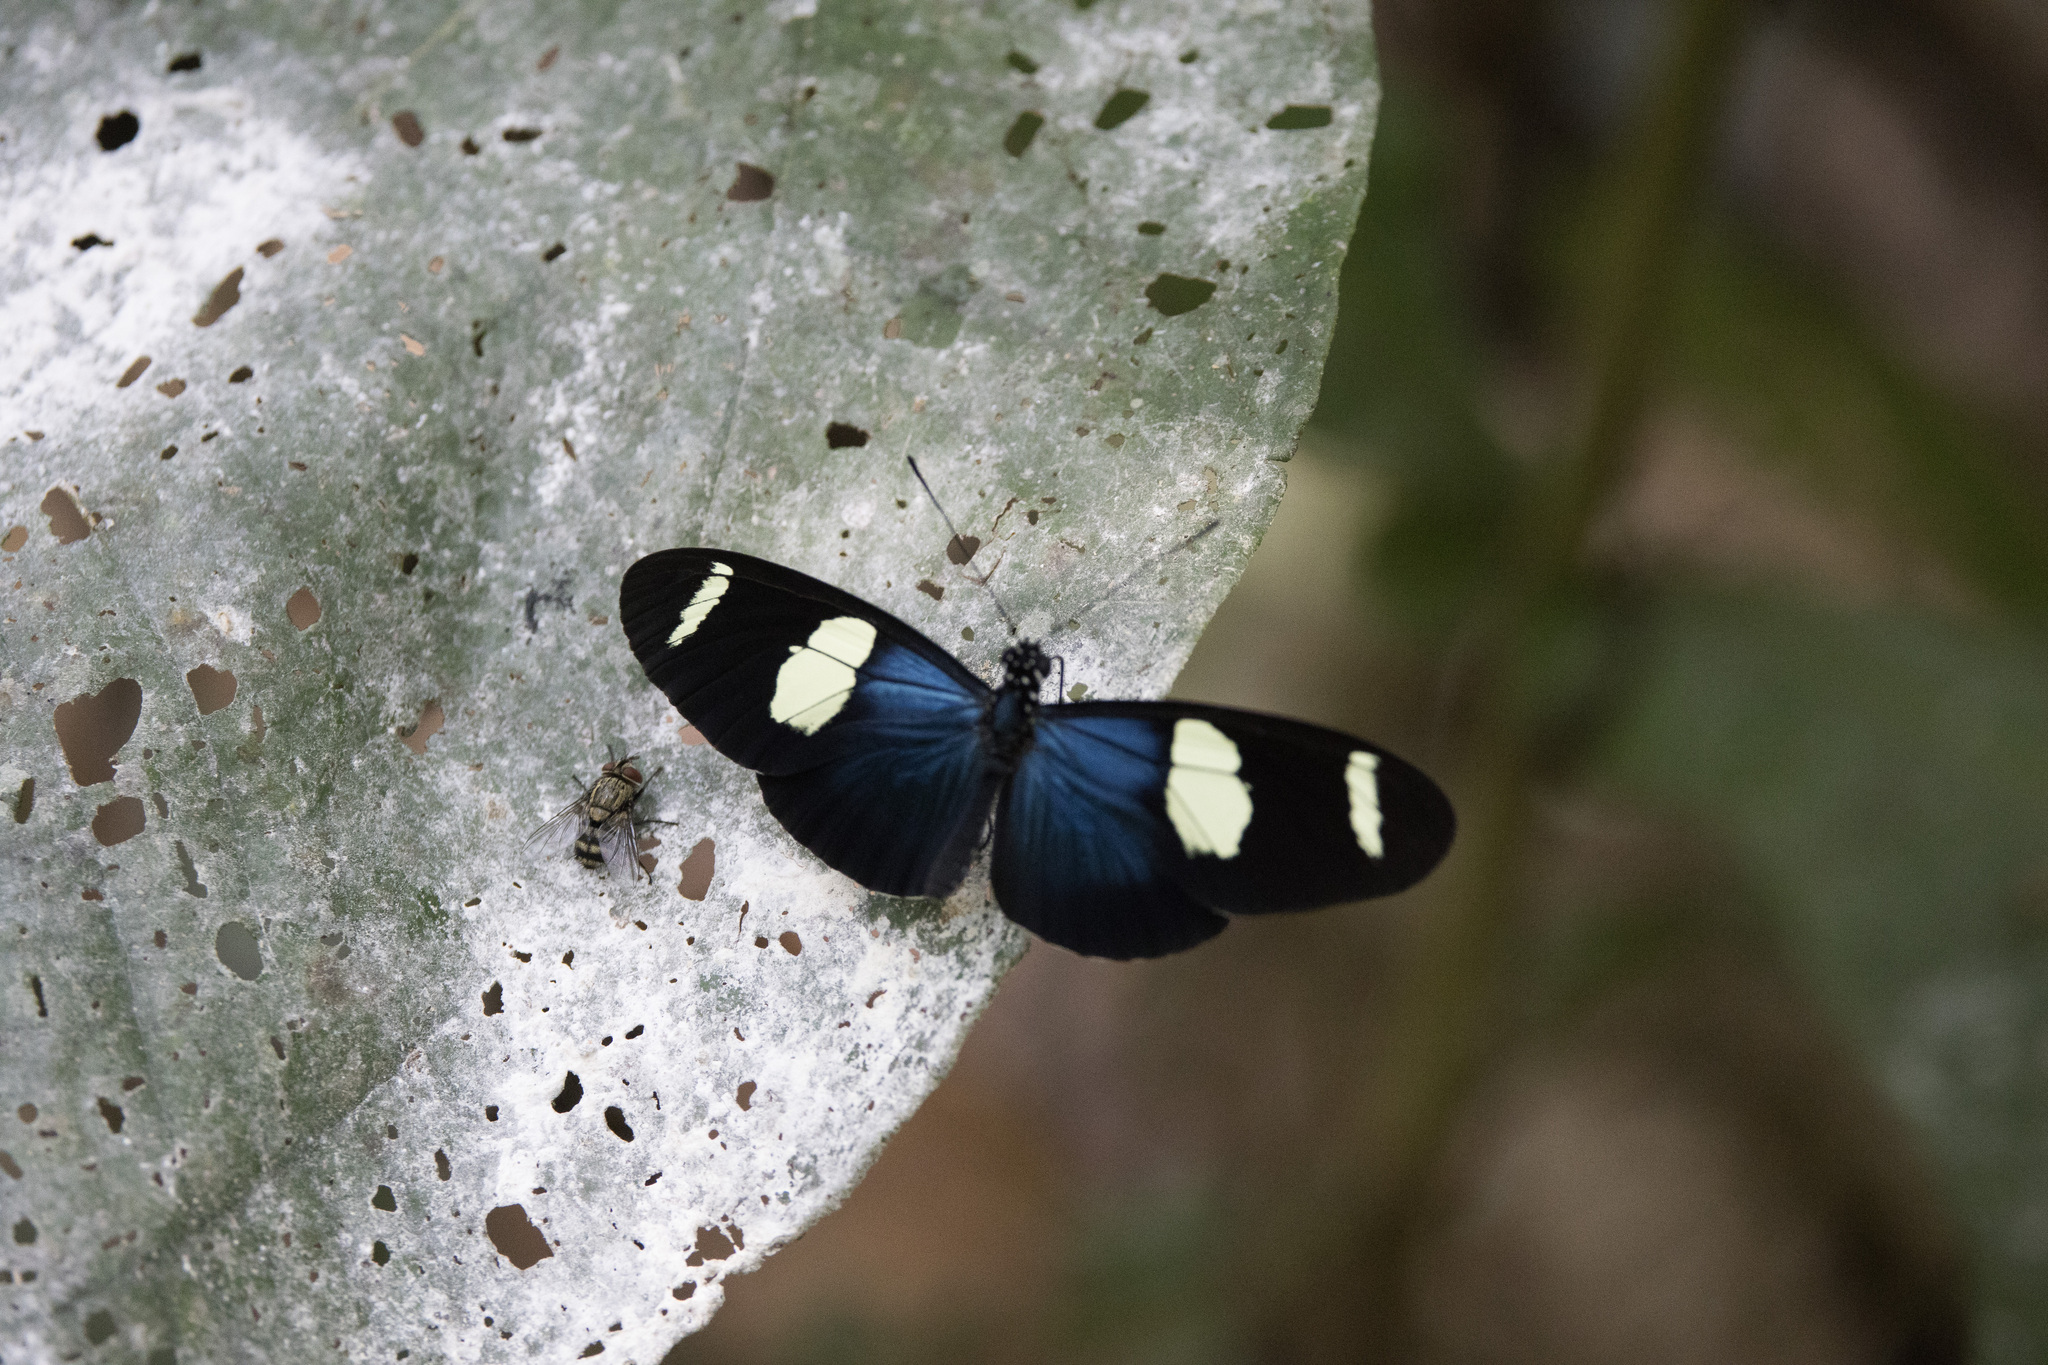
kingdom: Animalia
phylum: Arthropoda
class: Insecta
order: Lepidoptera
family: Nymphalidae
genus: Heliconius
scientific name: Heliconius sara
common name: Sara longwing
